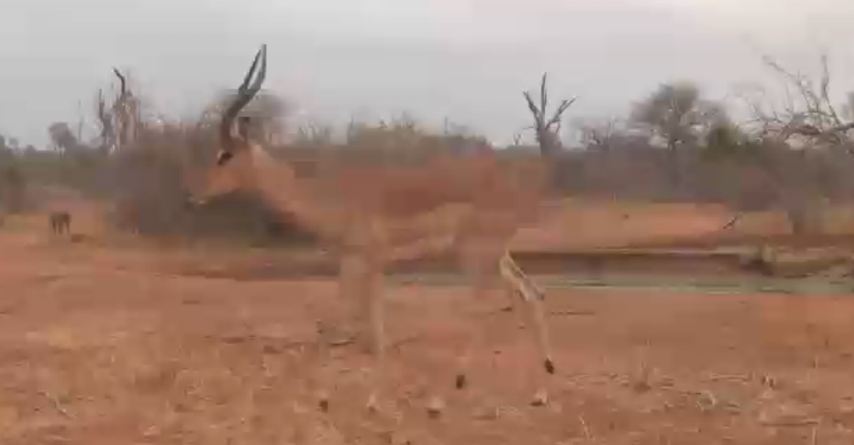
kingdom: Animalia
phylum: Chordata
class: Mammalia
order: Artiodactyla
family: Bovidae
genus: Aepyceros
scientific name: Aepyceros melampus
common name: Impala
